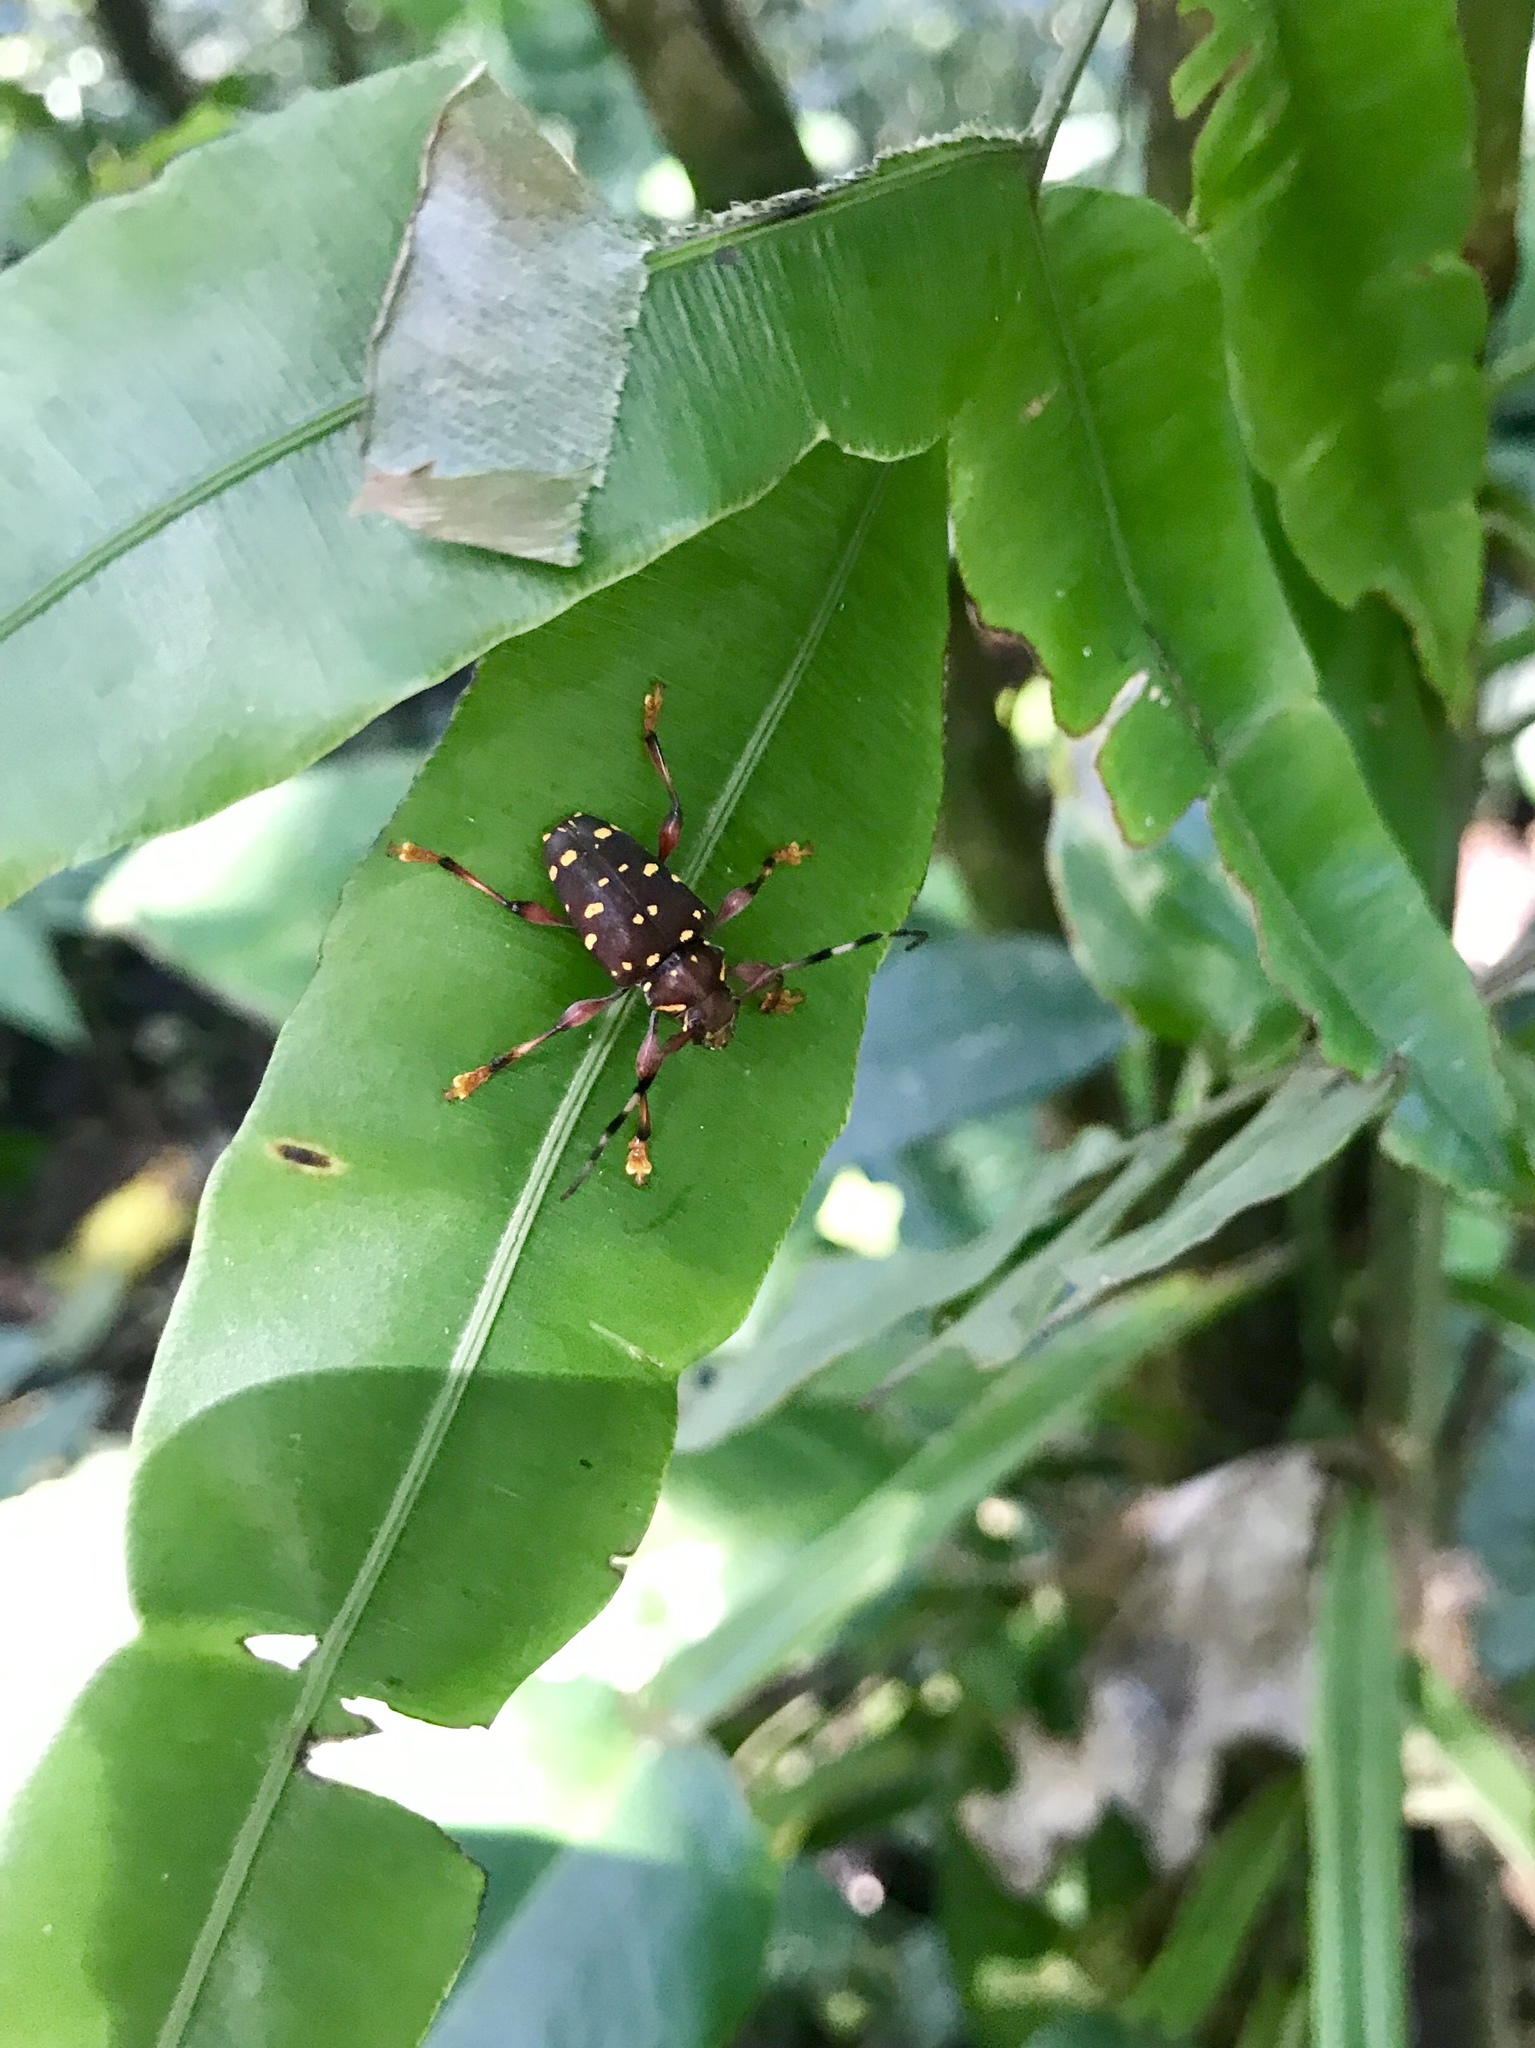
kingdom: Animalia
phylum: Arthropoda
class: Insecta
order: Coleoptera
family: Cerambycidae
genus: Acanthoderes
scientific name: Acanthoderes rubripes
